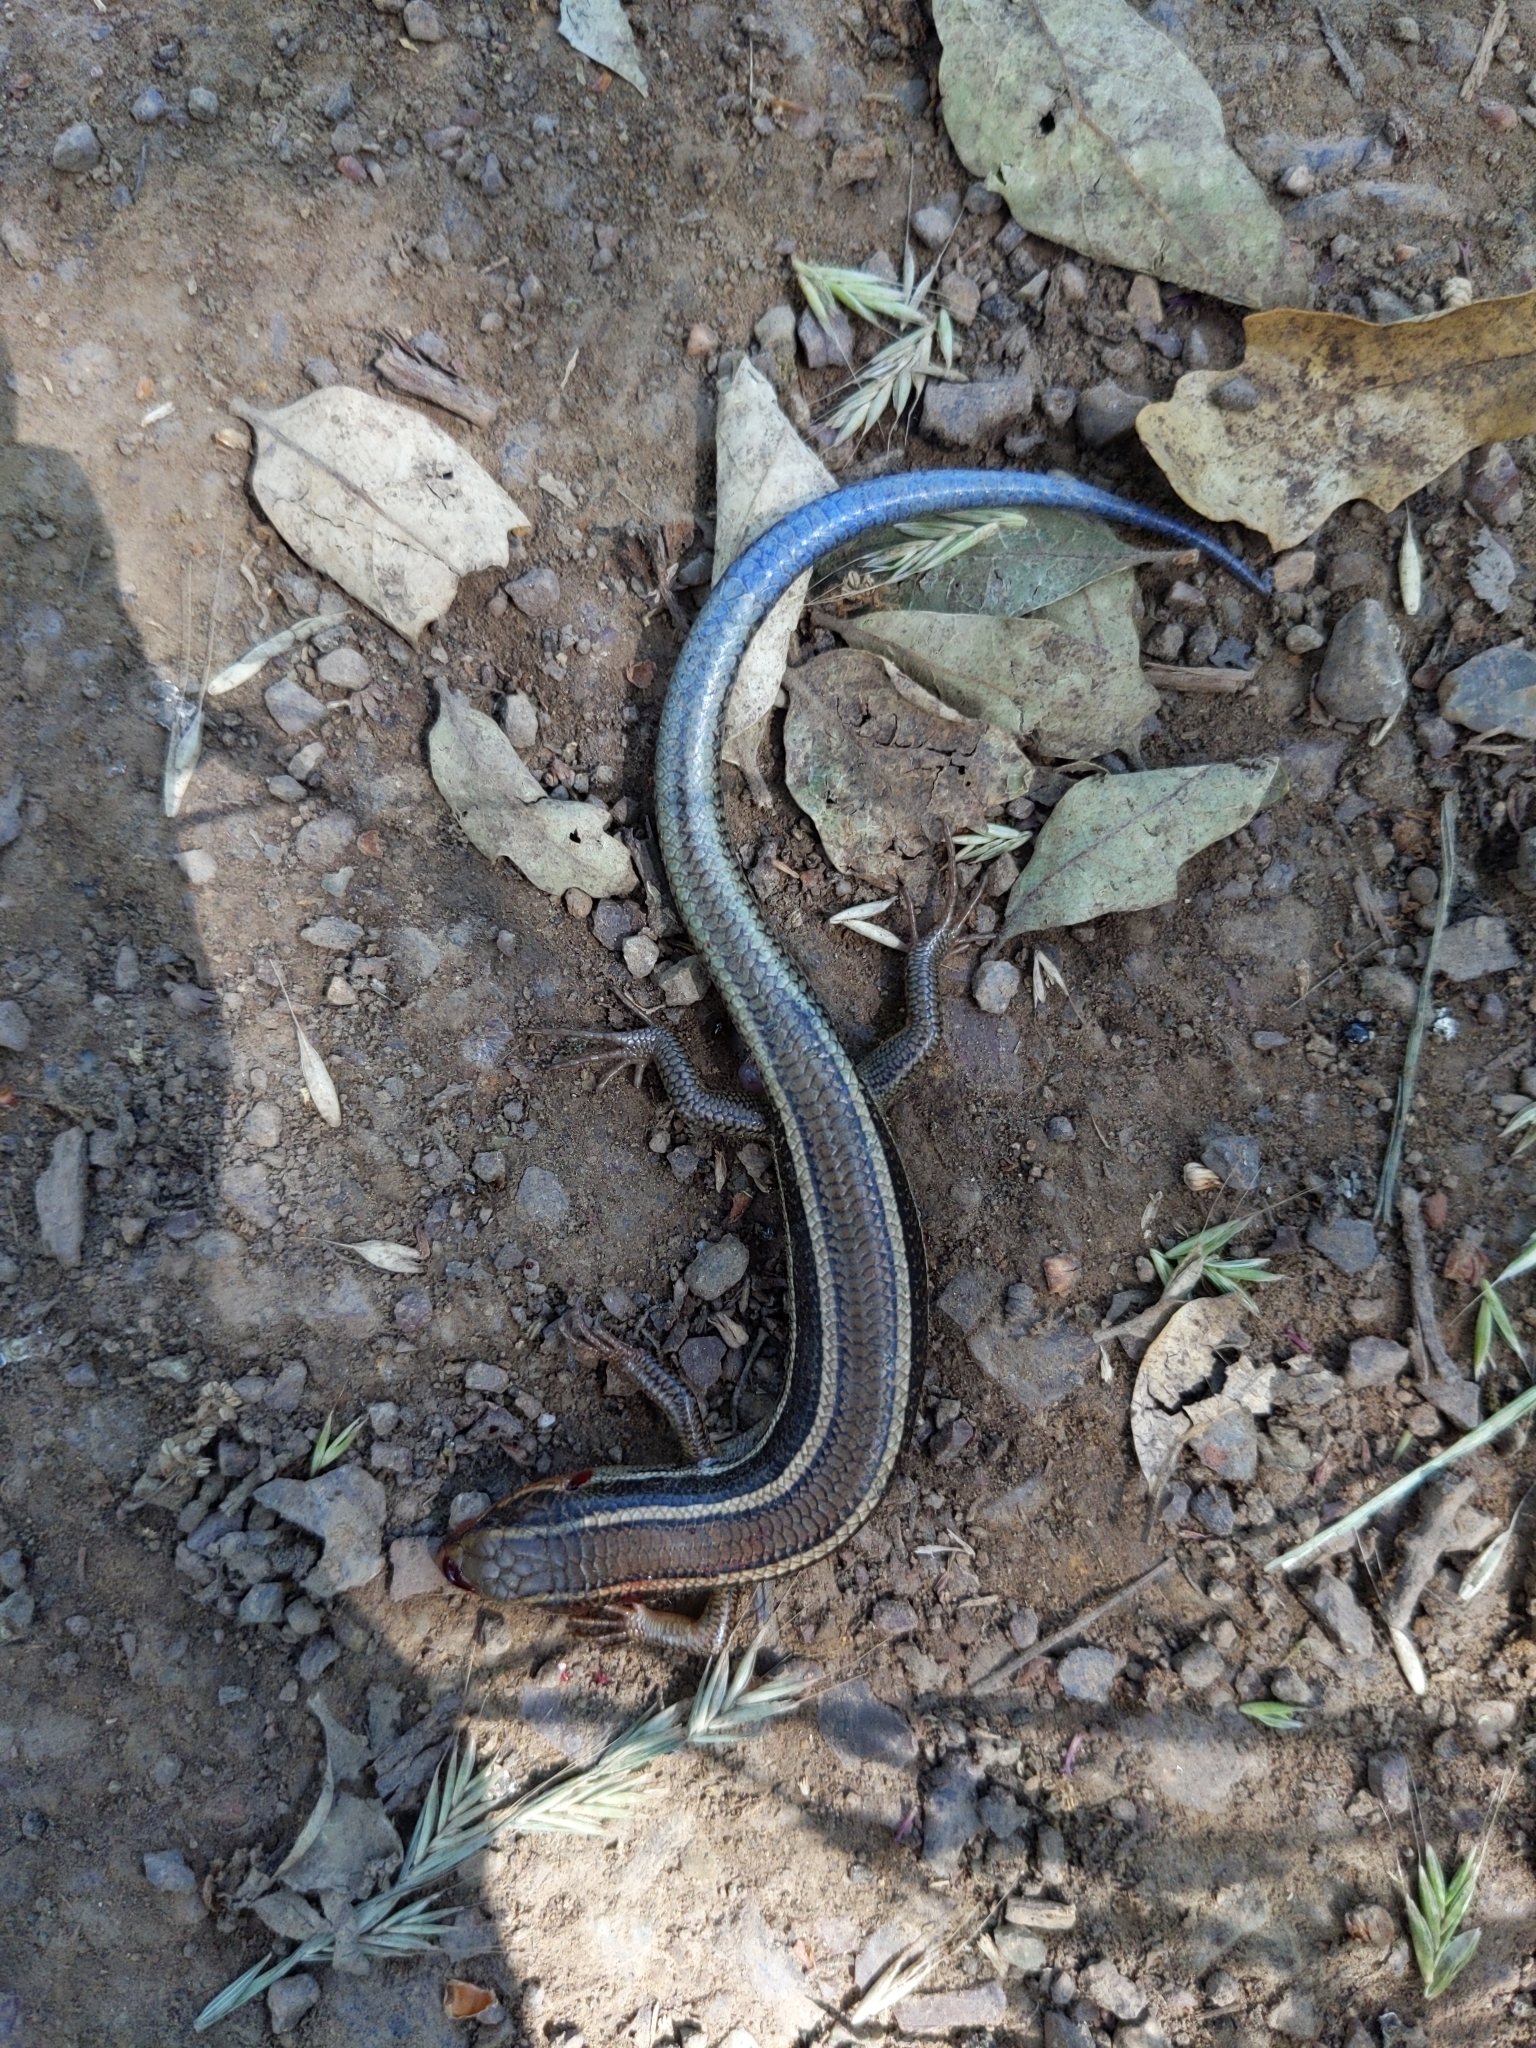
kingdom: Animalia
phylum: Chordata
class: Squamata
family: Scincidae
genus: Plestiodon
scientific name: Plestiodon skiltonianus
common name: Coronado island skink [interparietalis]
